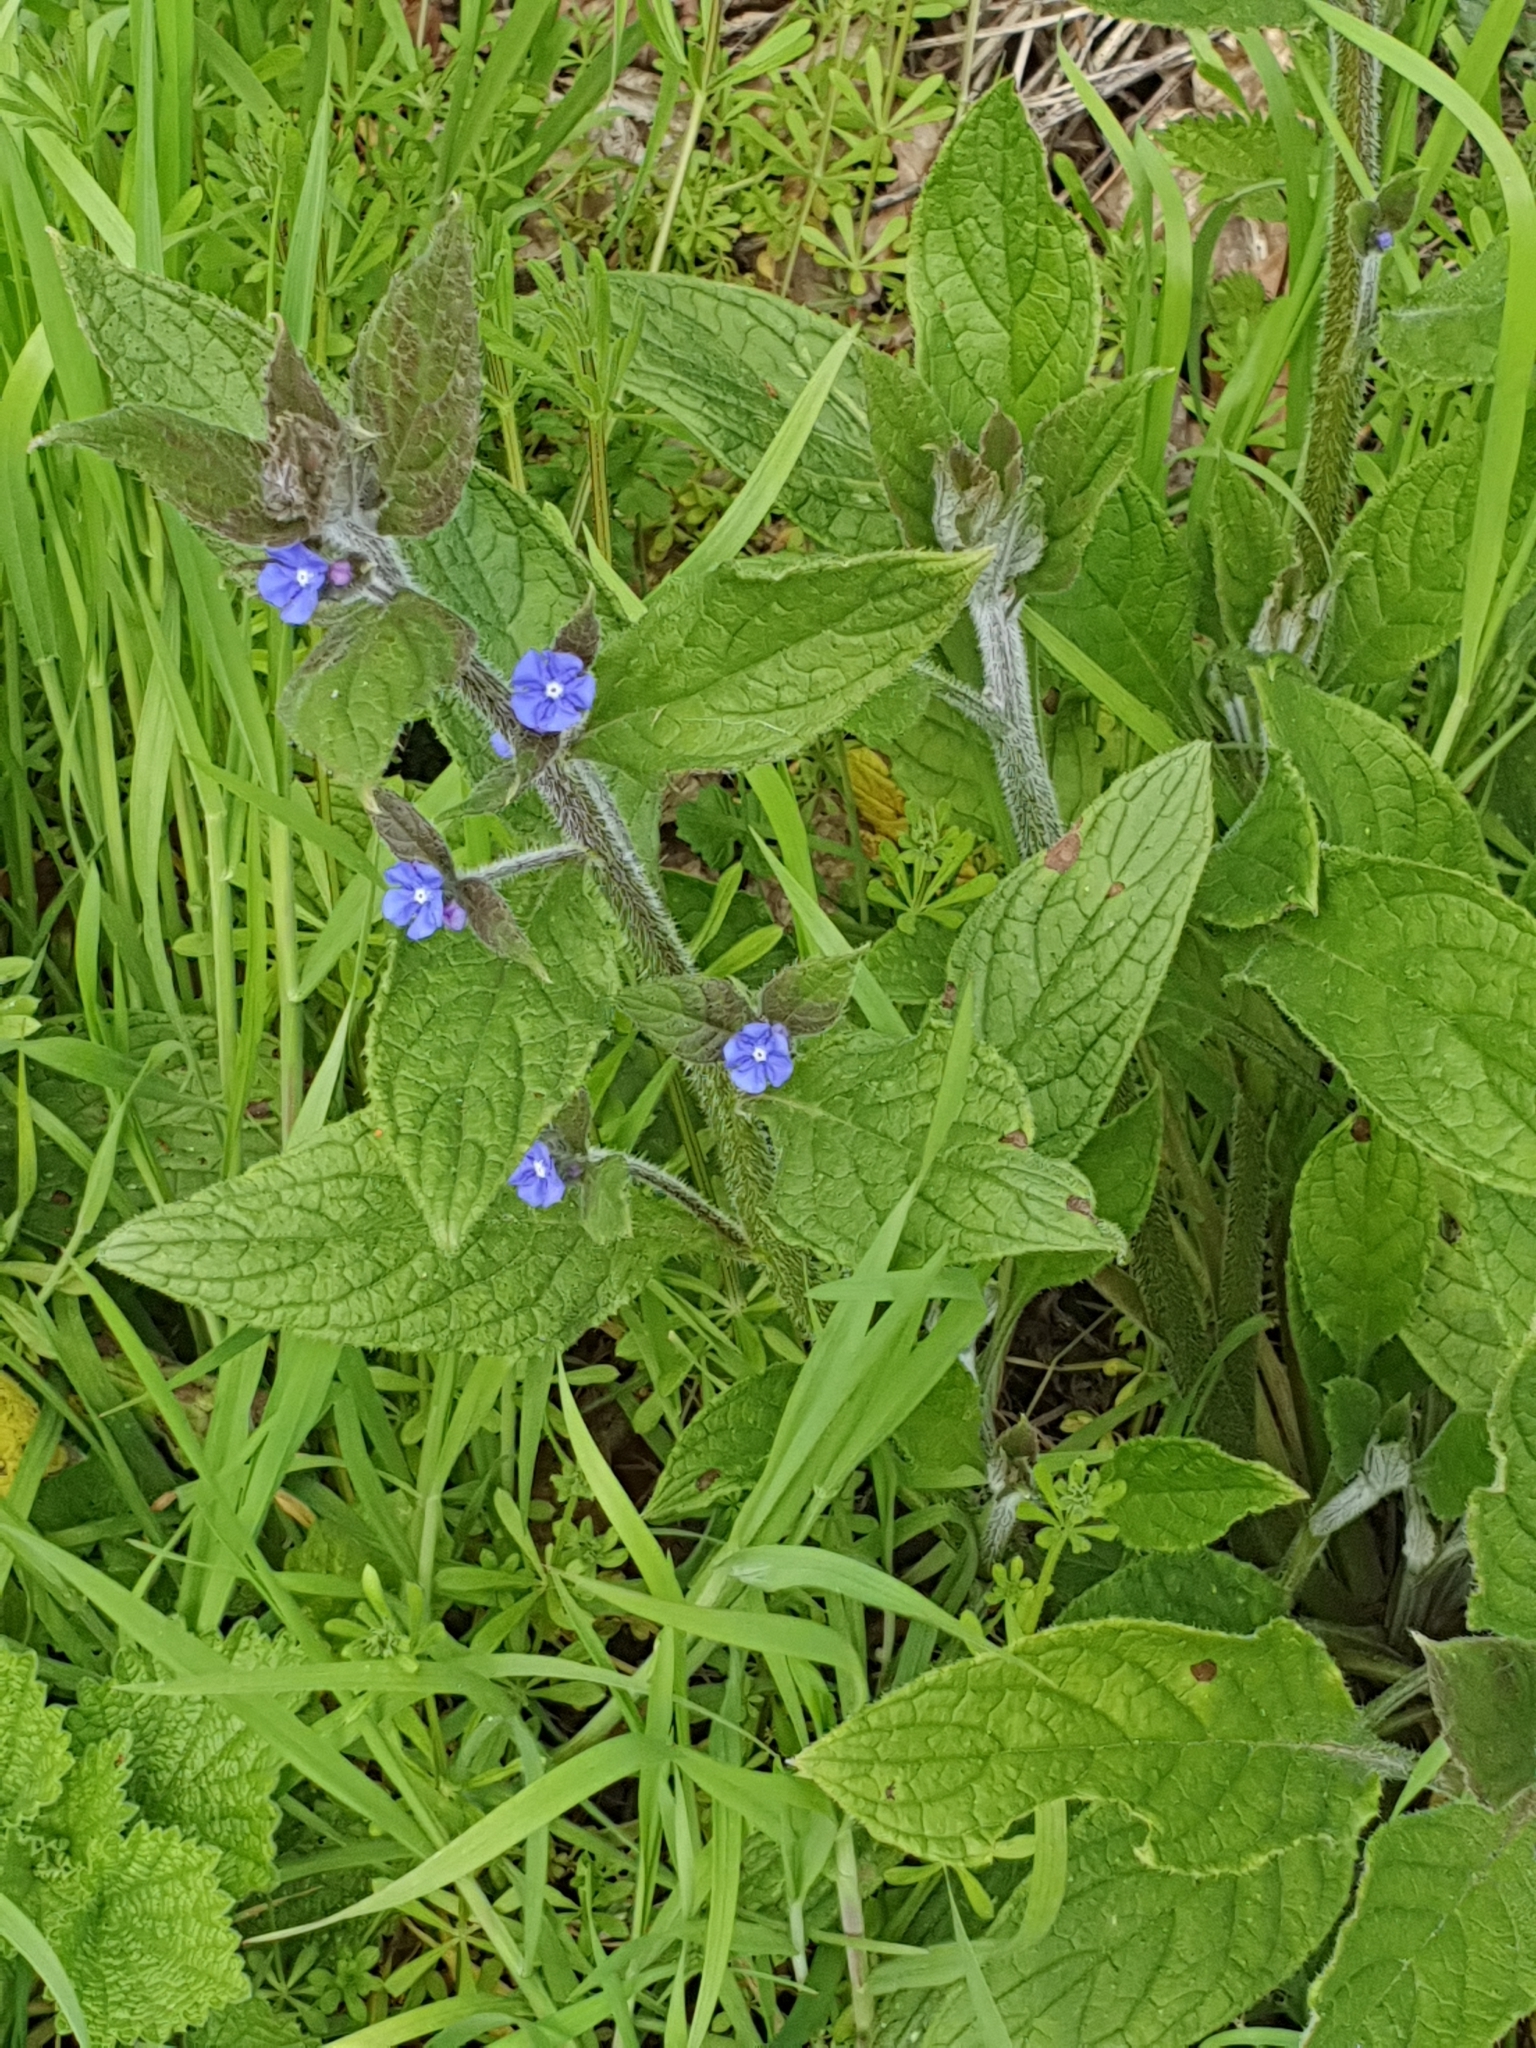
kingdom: Plantae
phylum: Tracheophyta
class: Magnoliopsida
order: Boraginales
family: Boraginaceae
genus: Pentaglottis
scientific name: Pentaglottis sempervirens
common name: Green alkanet
